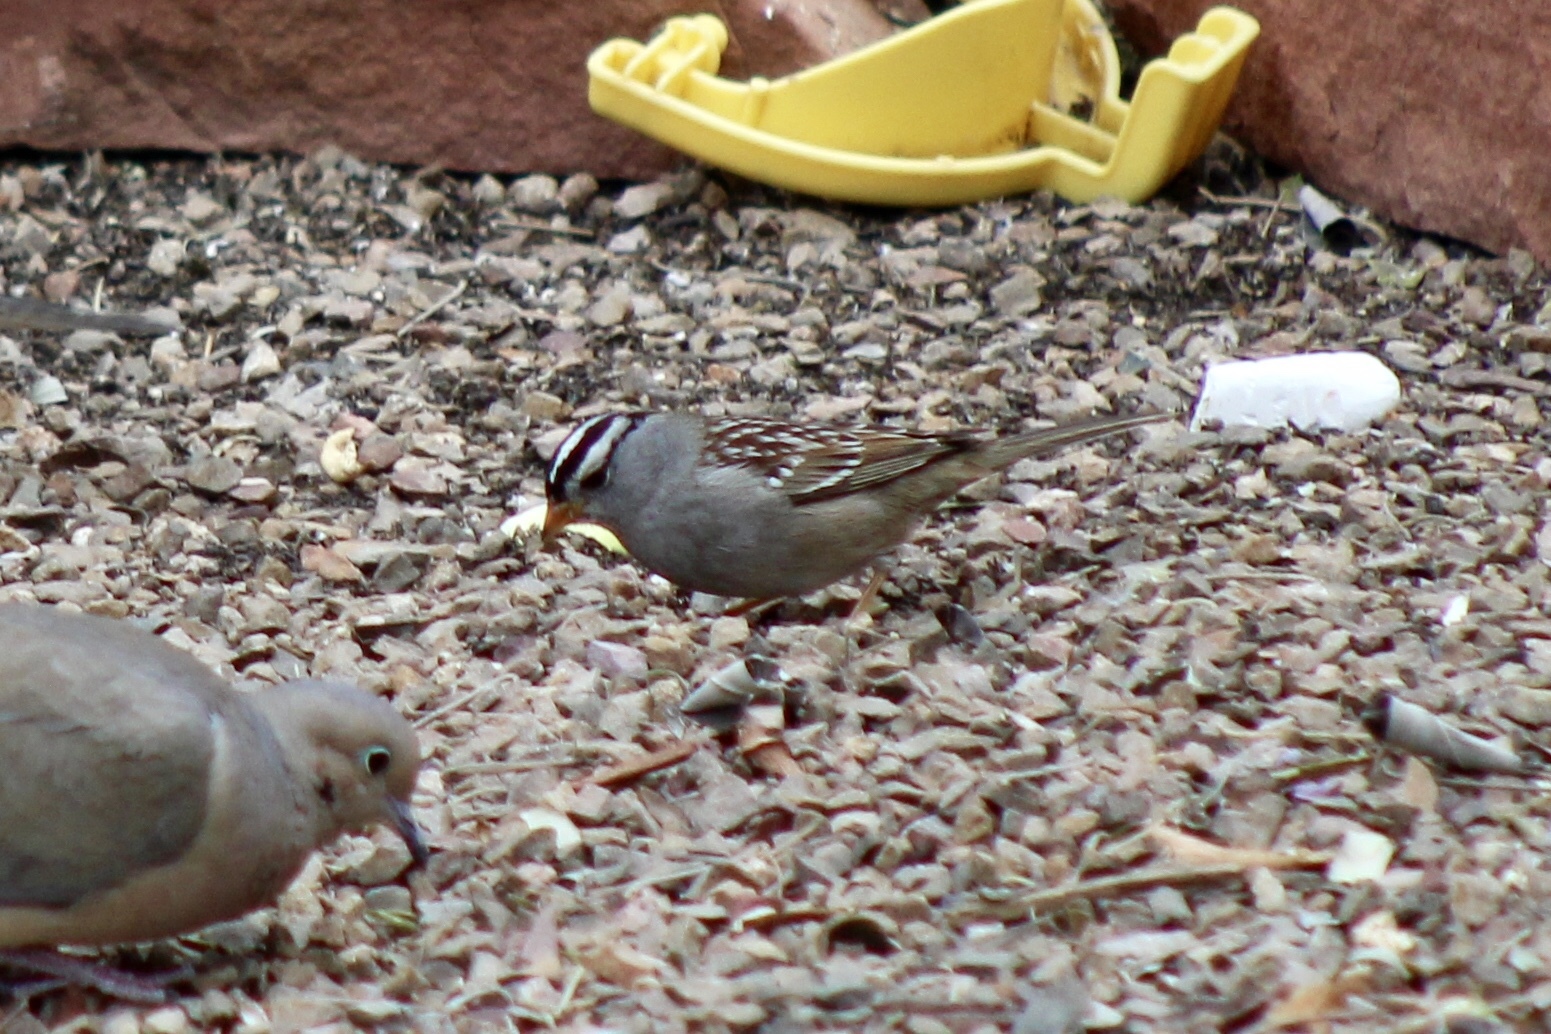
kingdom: Animalia
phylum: Chordata
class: Aves
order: Passeriformes
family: Passerellidae
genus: Zonotrichia
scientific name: Zonotrichia leucophrys
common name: White-crowned sparrow
